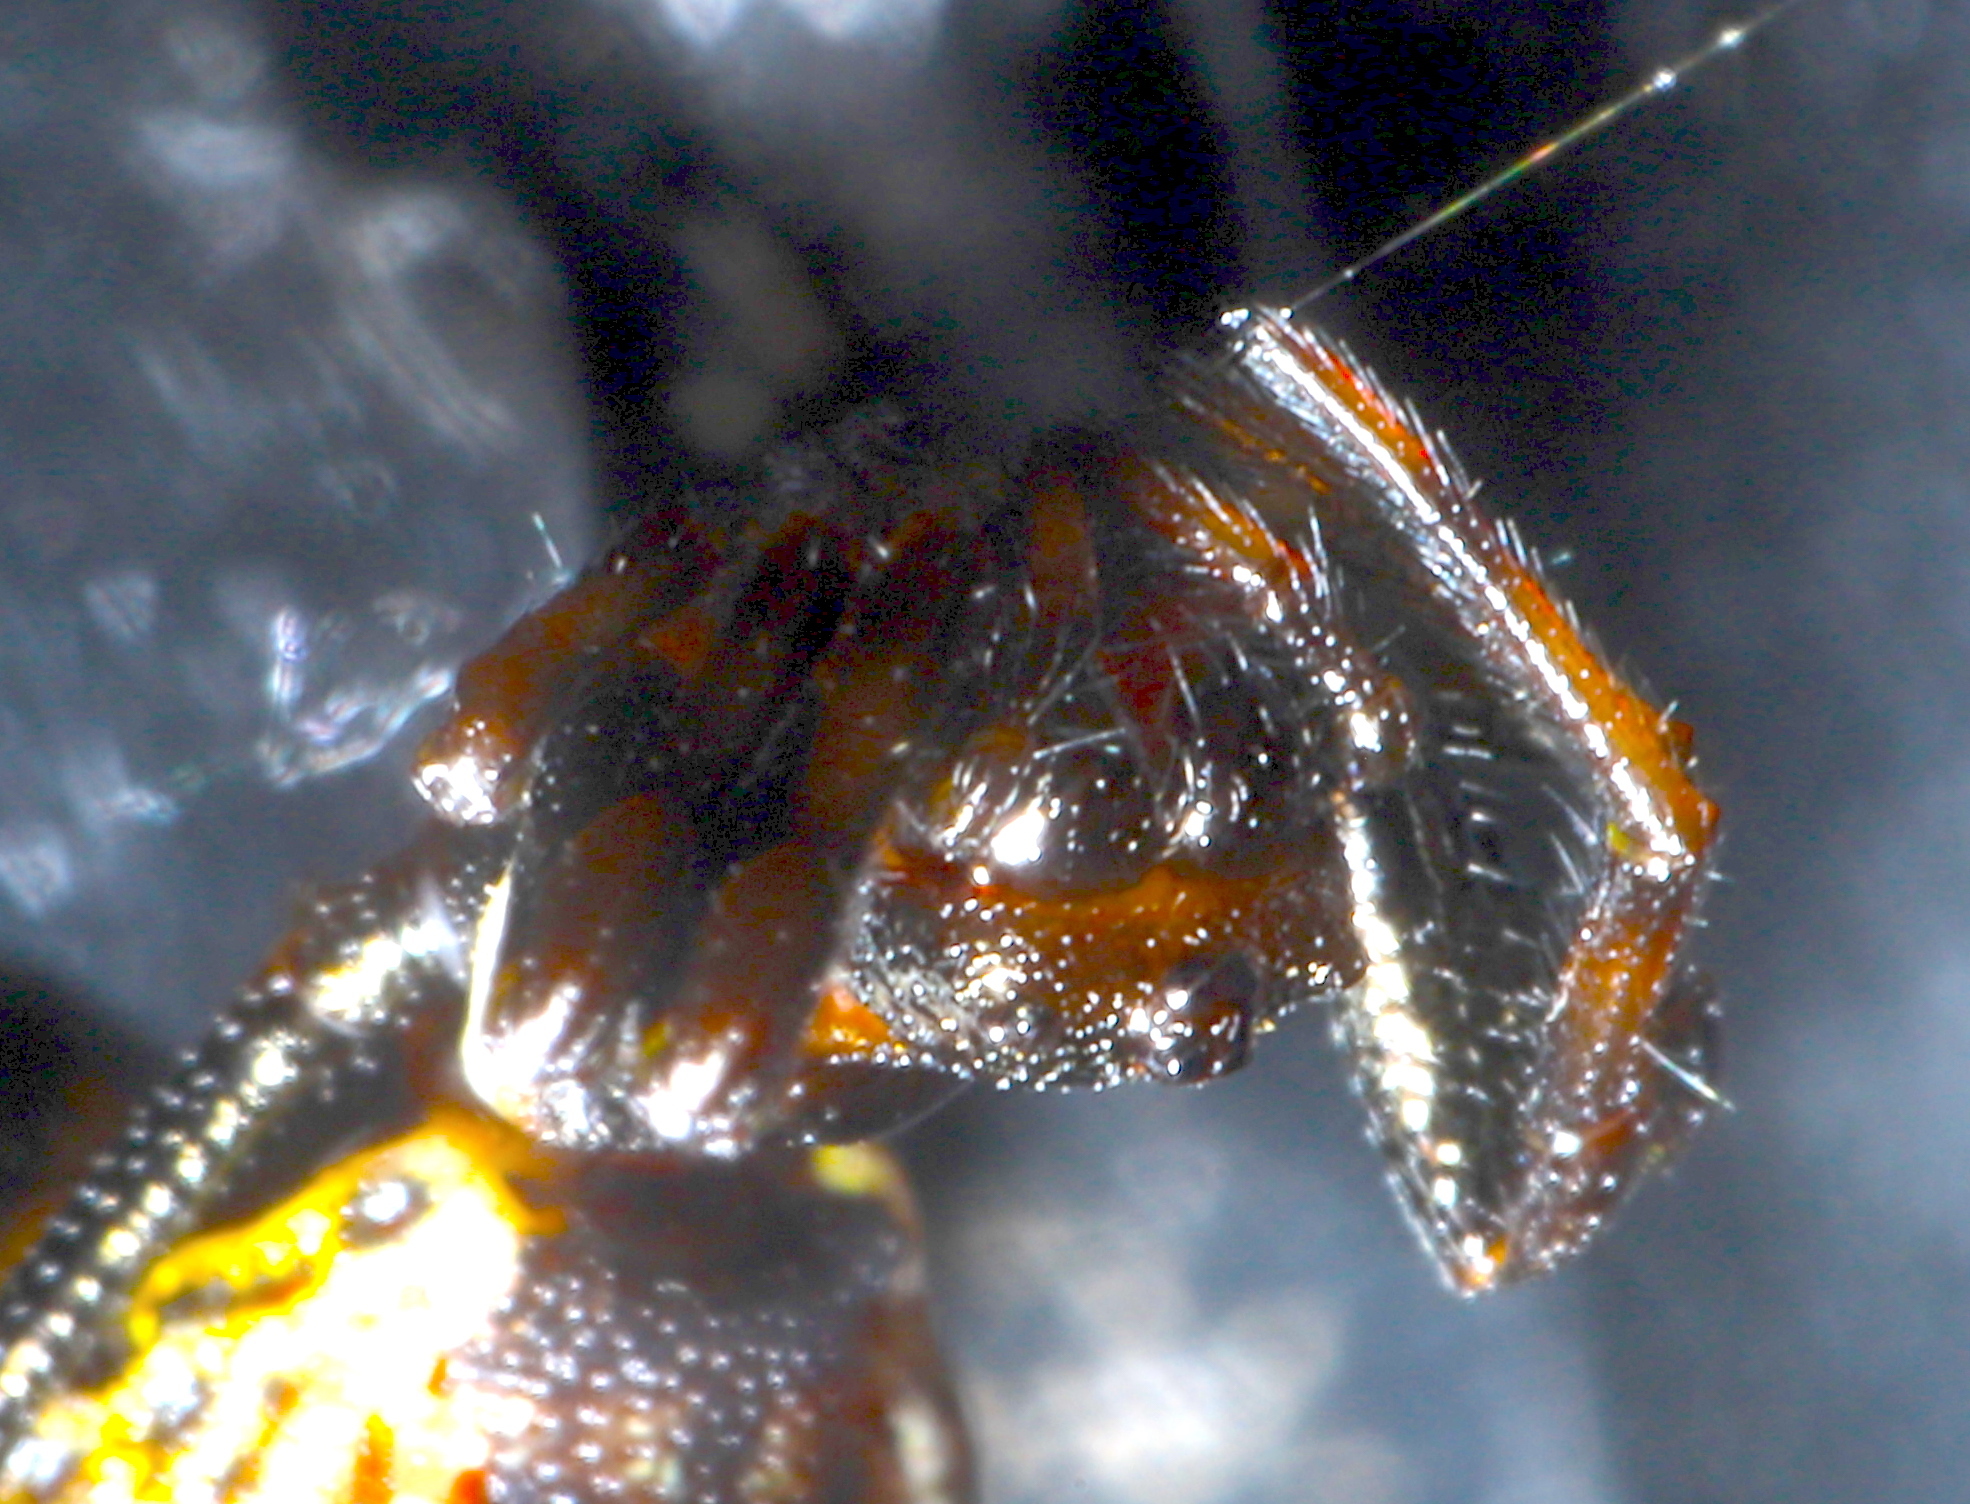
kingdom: Animalia
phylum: Arthropoda
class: Arachnida
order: Araneae
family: Araneidae
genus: Micrathena
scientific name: Micrathena gracilis
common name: Orb weavers
